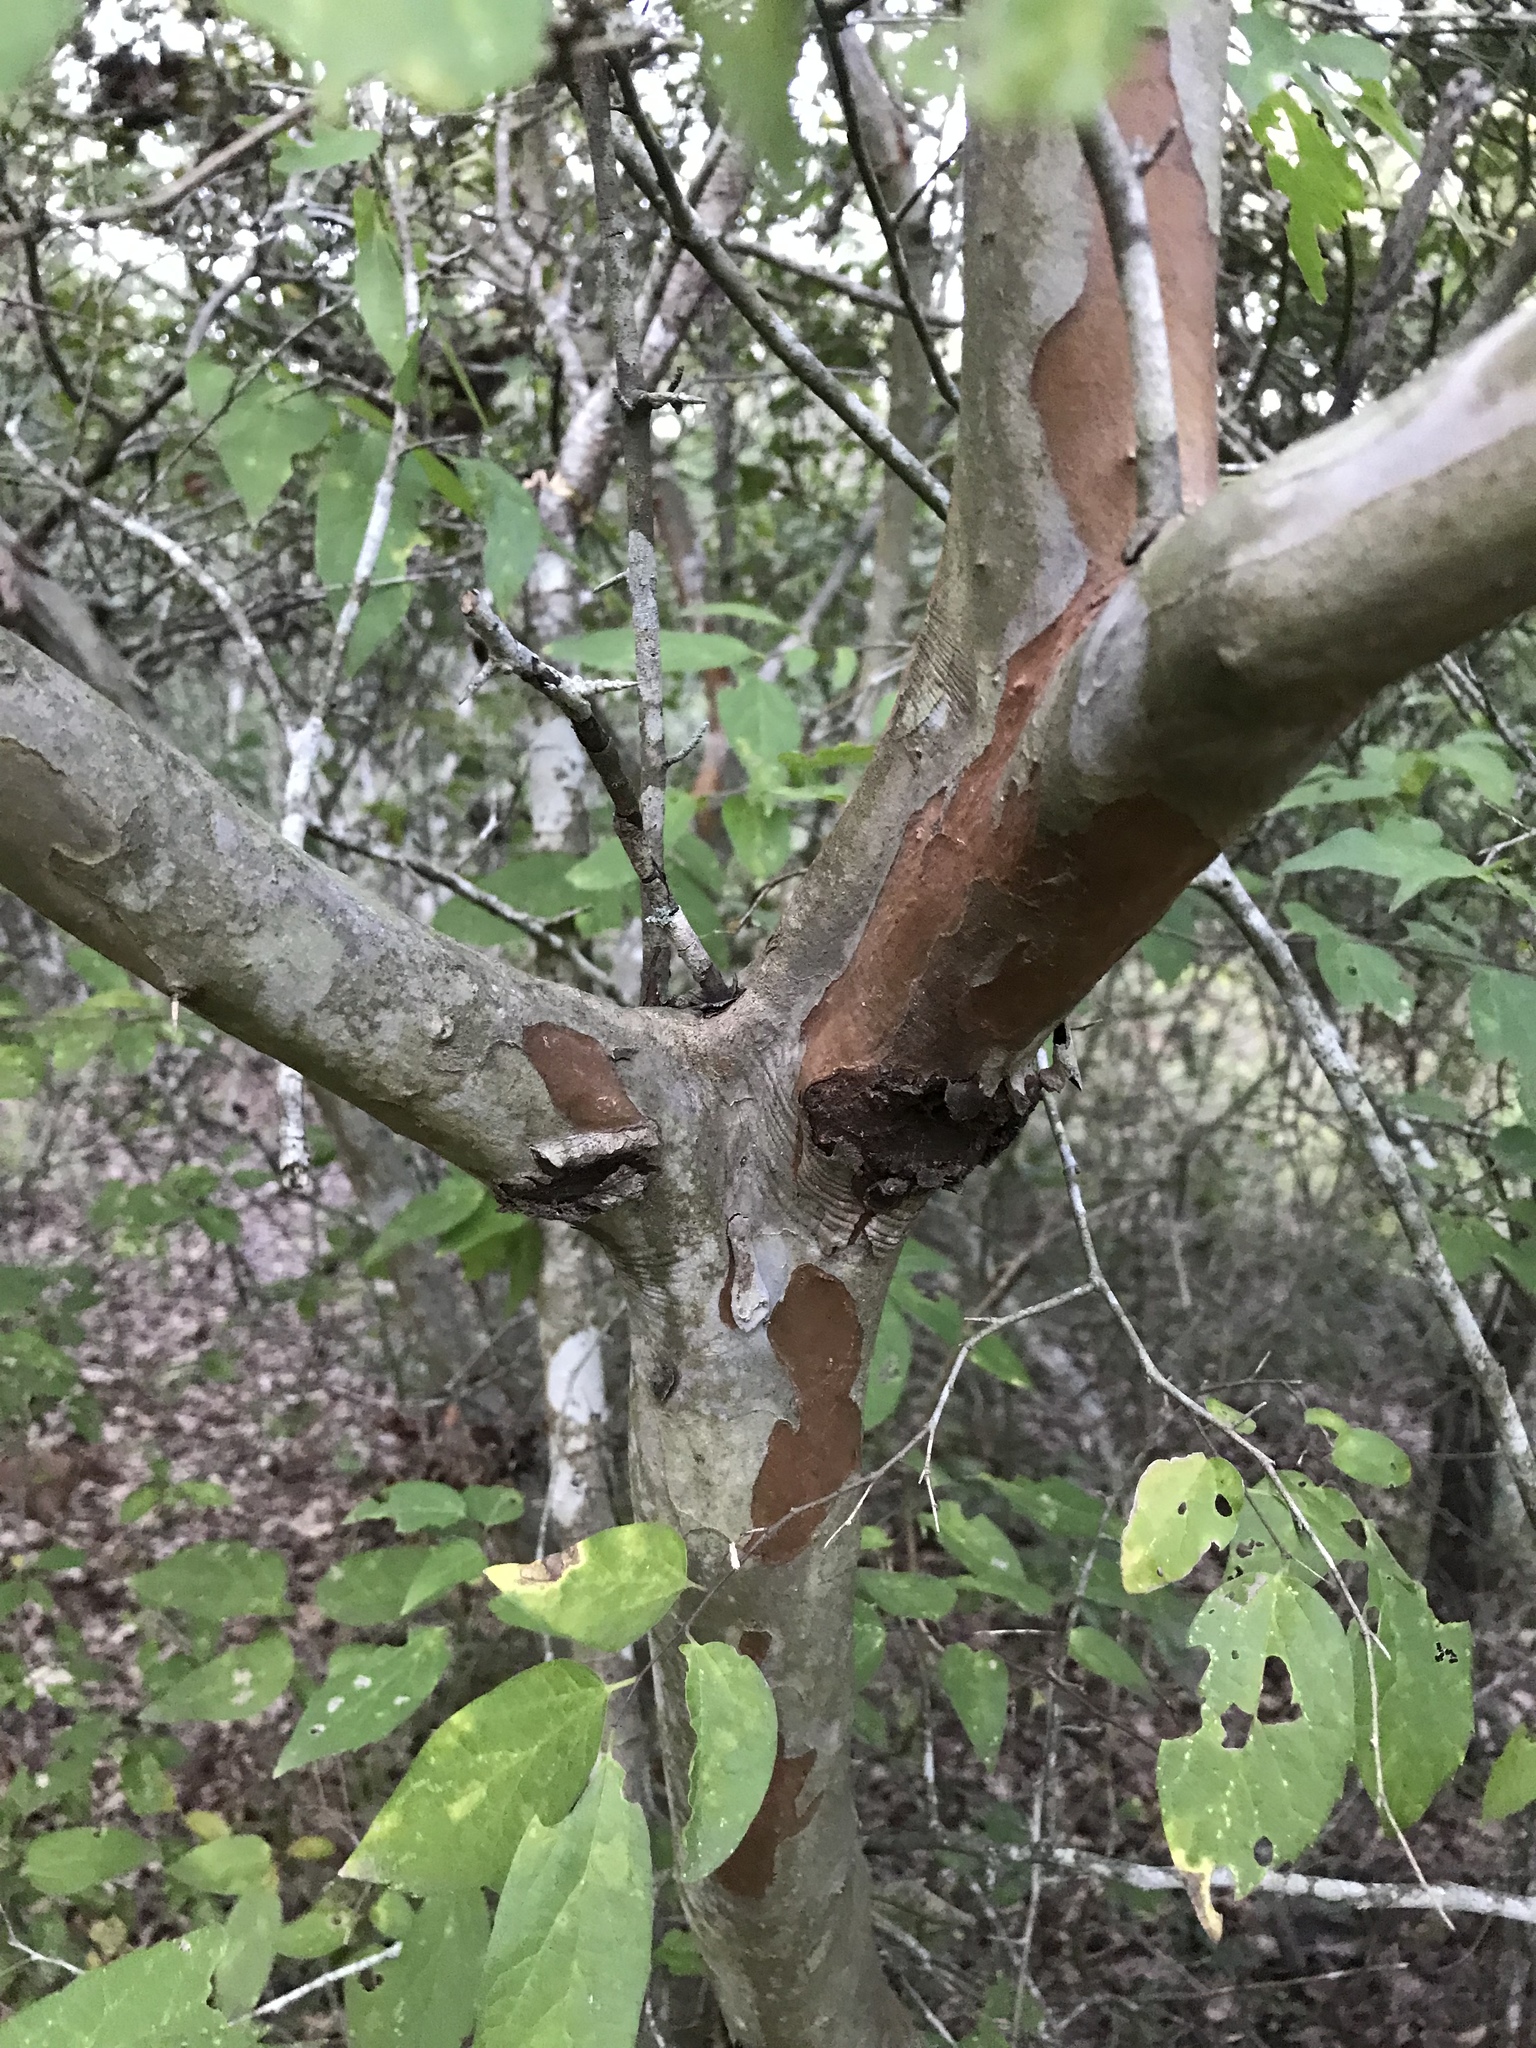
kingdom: Plantae
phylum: Tracheophyta
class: Magnoliopsida
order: Rosales
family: Rosaceae
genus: Crataegus
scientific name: Crataegus spathulata
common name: Littlehip hawthorn
